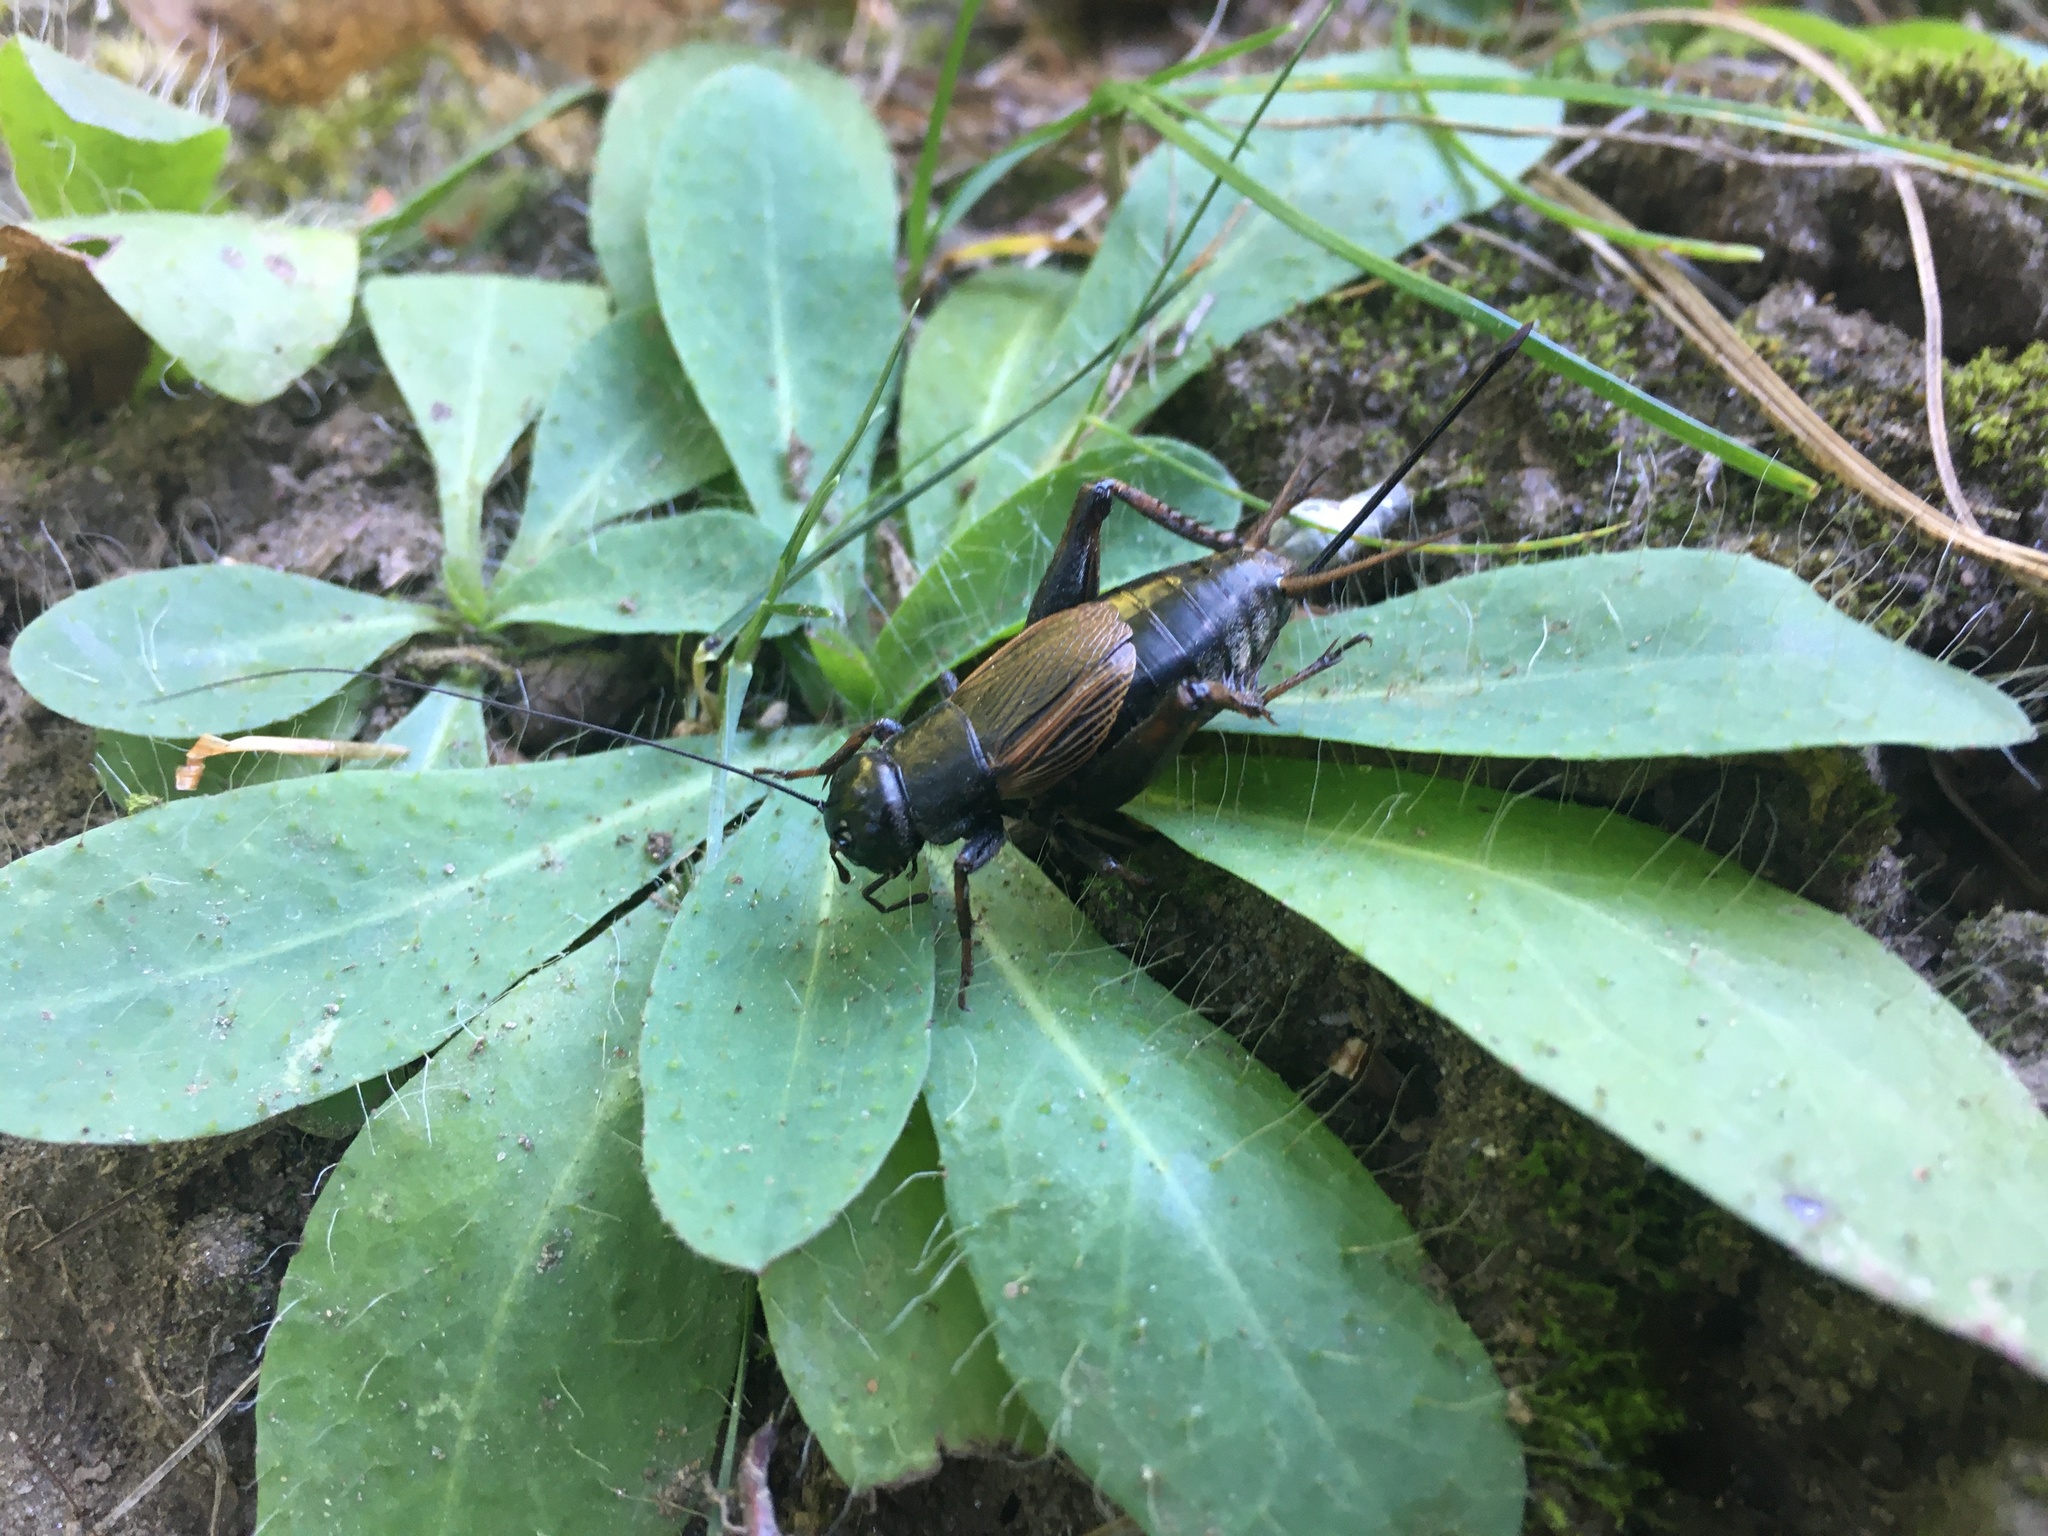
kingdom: Animalia
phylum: Arthropoda
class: Insecta
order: Orthoptera
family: Gryllidae
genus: Gryllus
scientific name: Gryllus pennsylvanicus
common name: Fall field cricket
